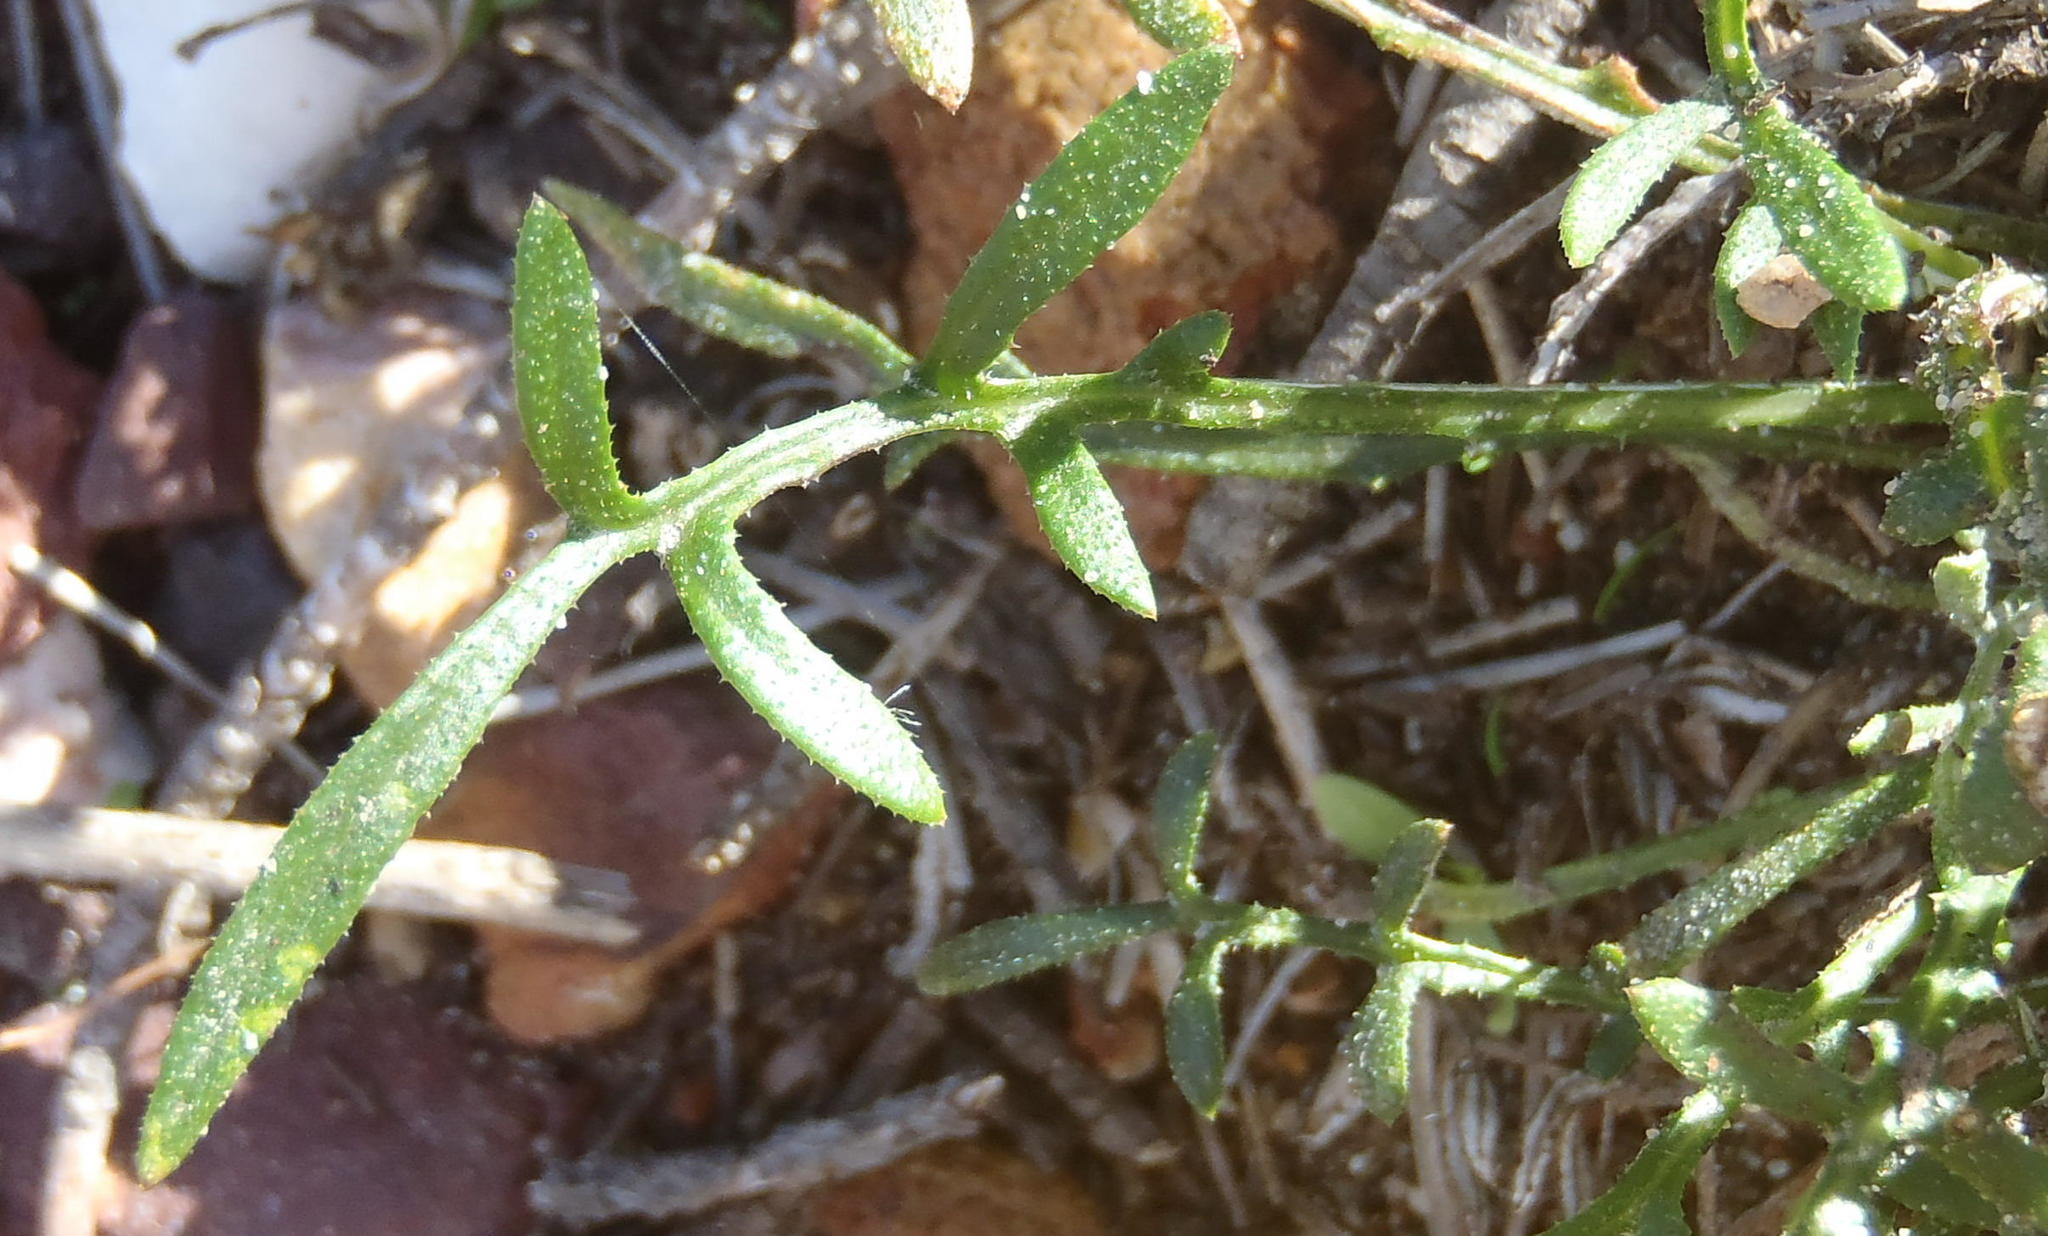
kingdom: Plantae
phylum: Tracheophyta
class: Magnoliopsida
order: Asterales
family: Asteraceae
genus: Gazania
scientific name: Gazania krebsiana
